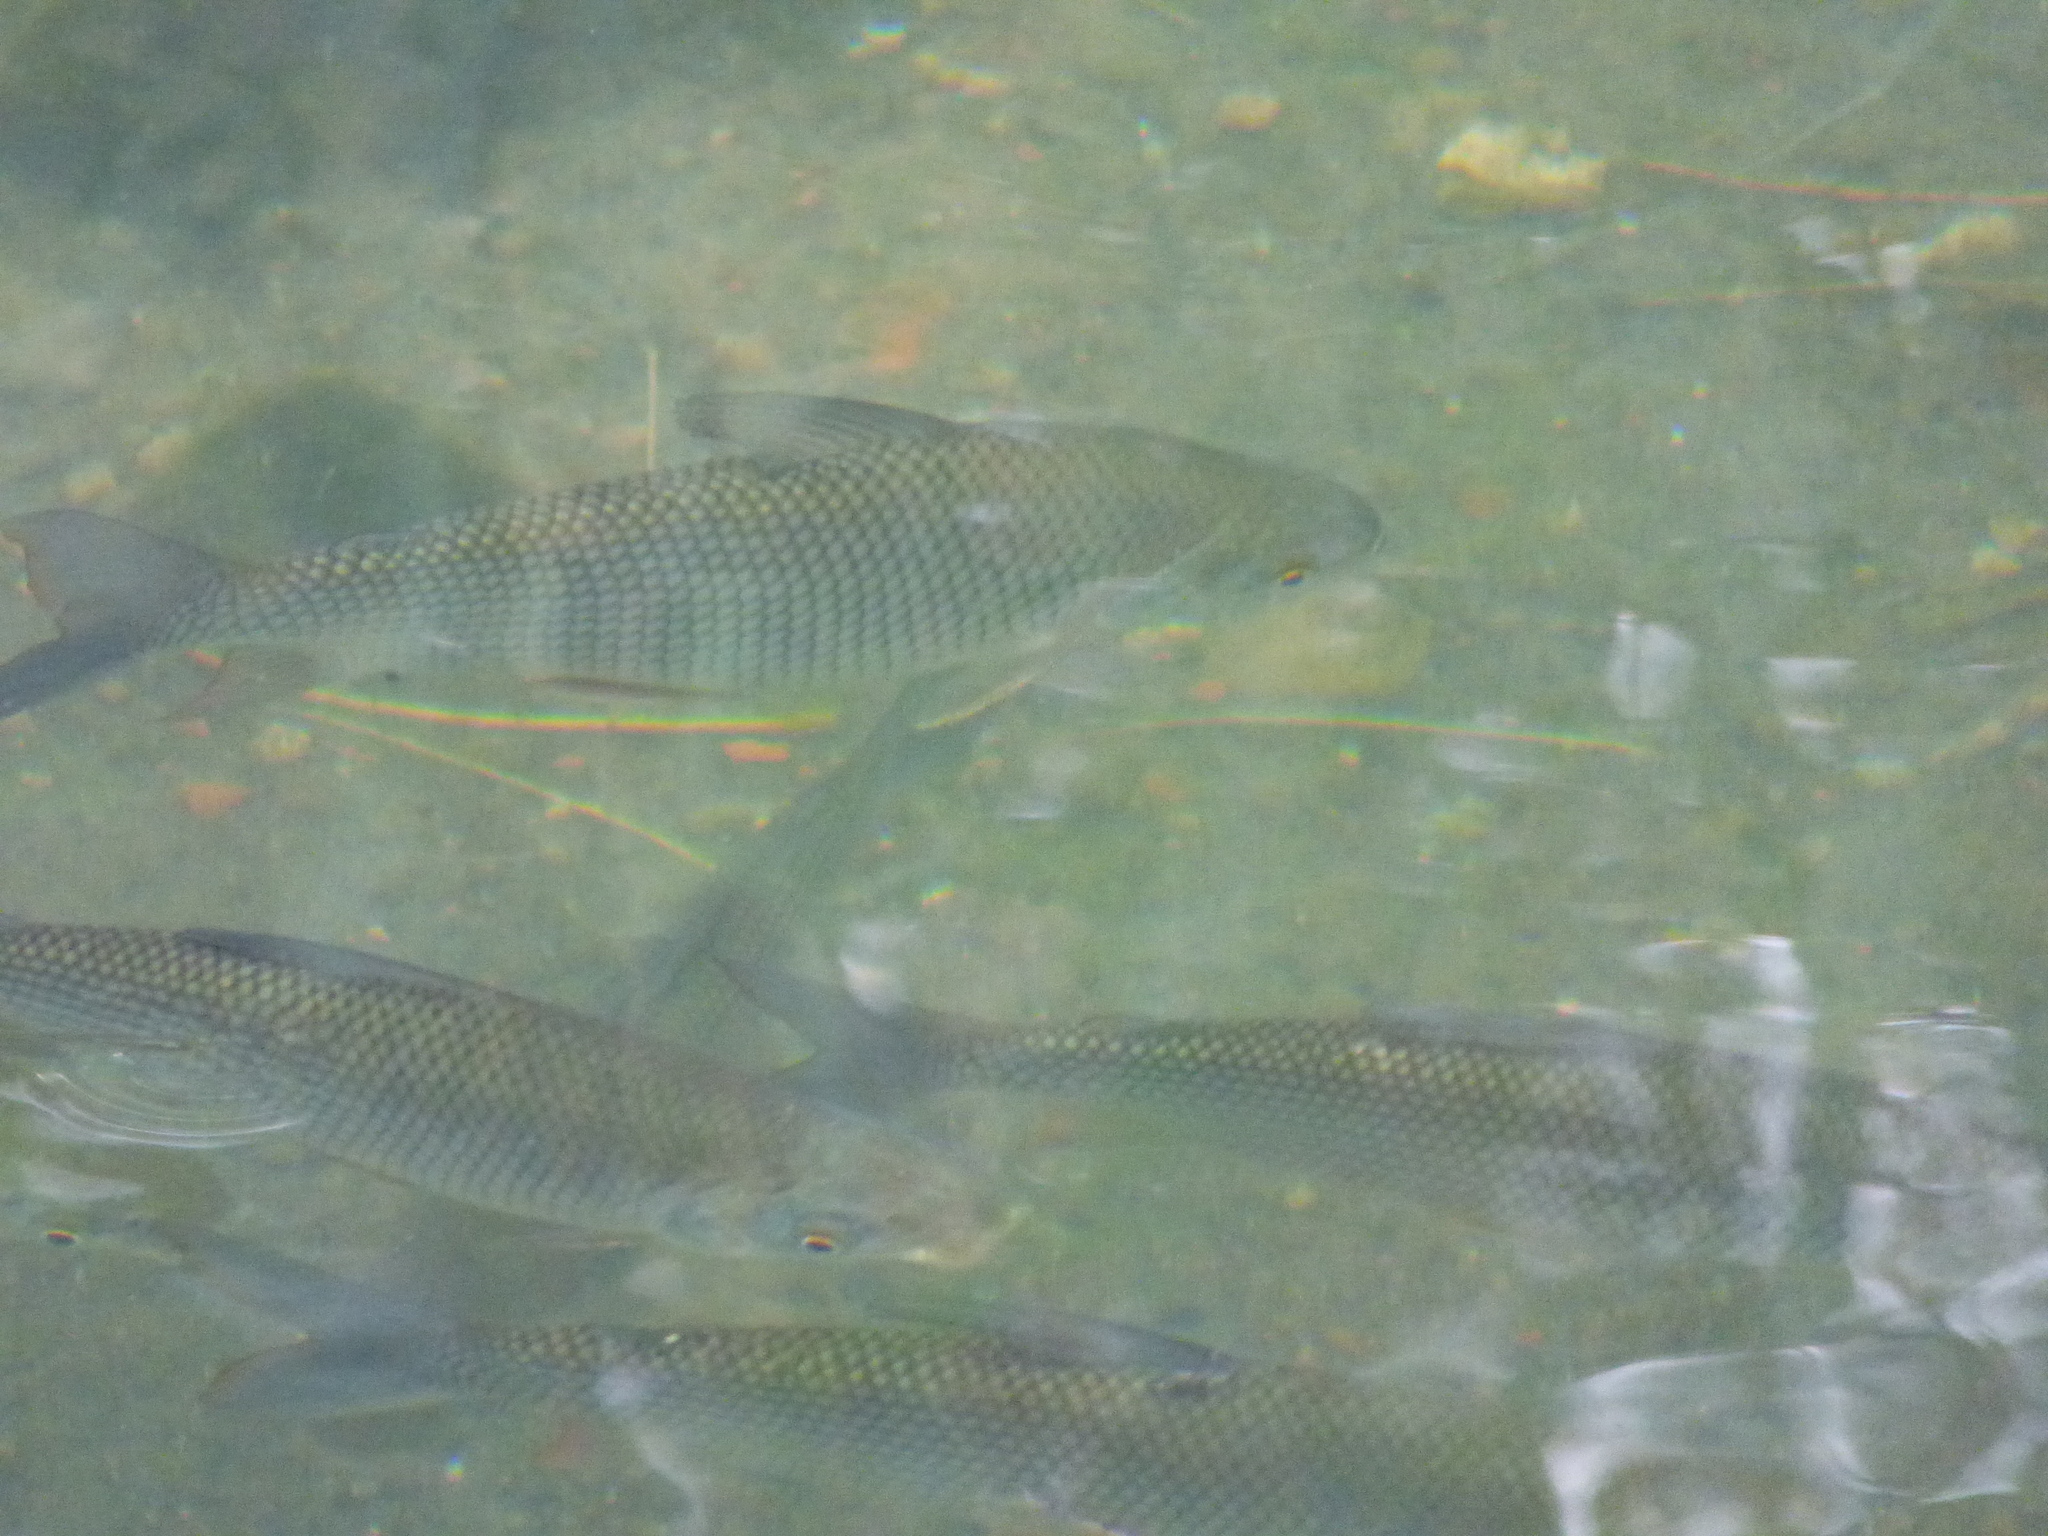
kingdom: Animalia
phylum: Chordata
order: Characiformes
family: Prochilodontidae
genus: Prochilodus
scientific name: Prochilodus lineatus
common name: Curimbata
